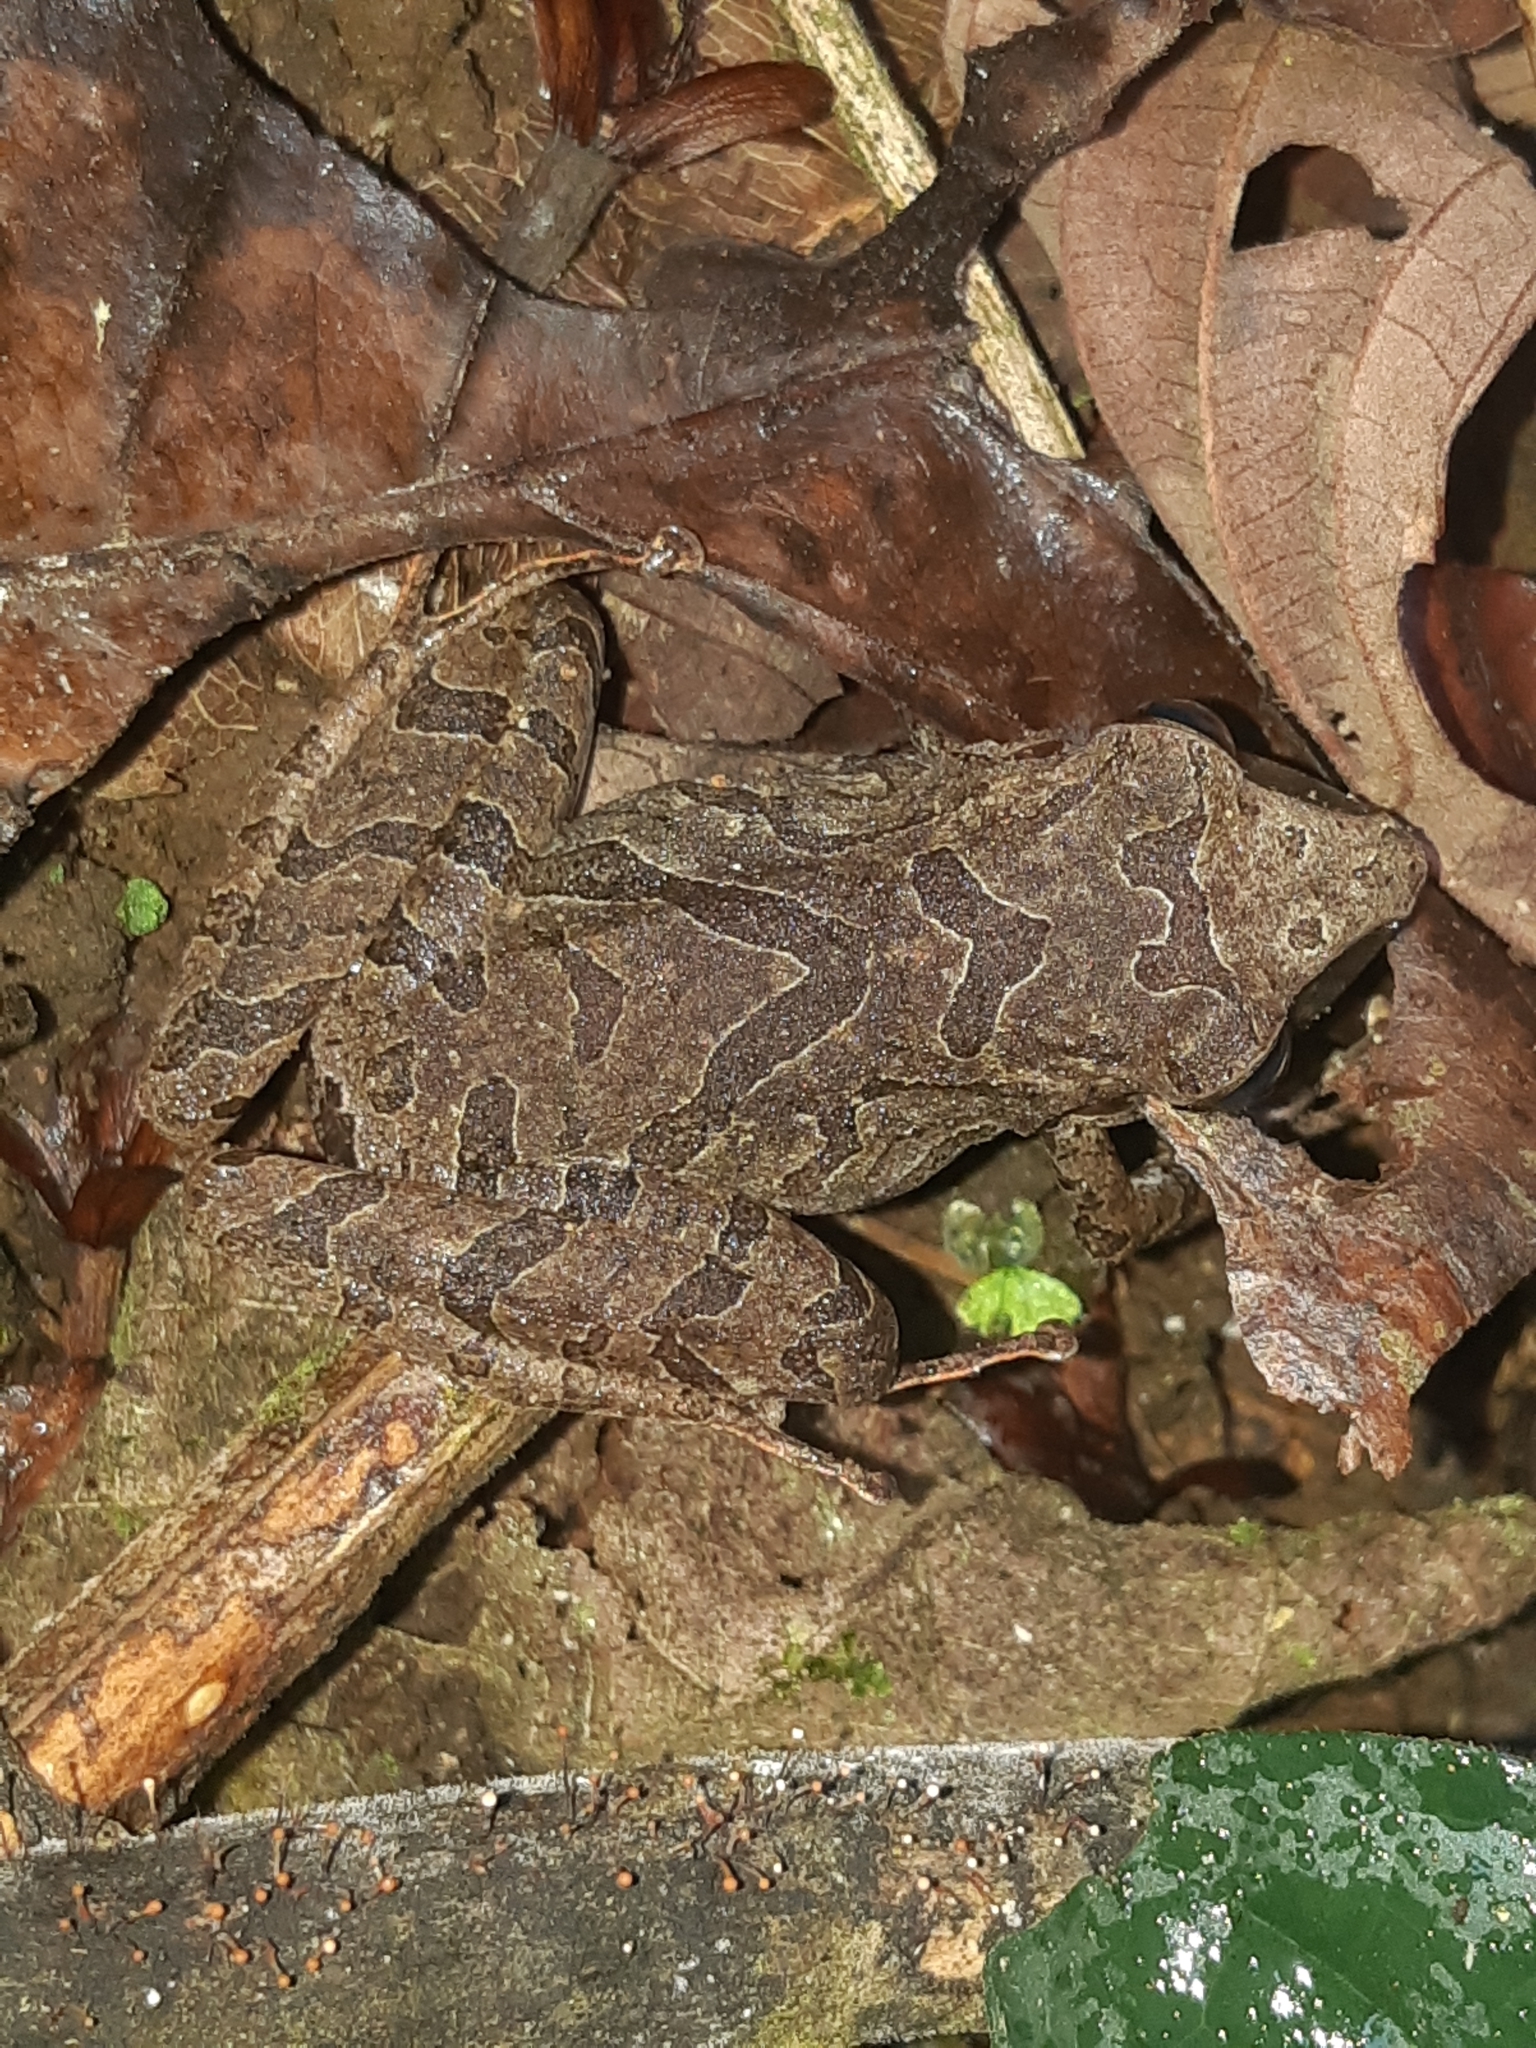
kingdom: Animalia
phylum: Chordata
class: Amphibia
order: Anura
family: Craugastoridae
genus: Pristimantis
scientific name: Pristimantis achatinus
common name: Cachabi robber frog
